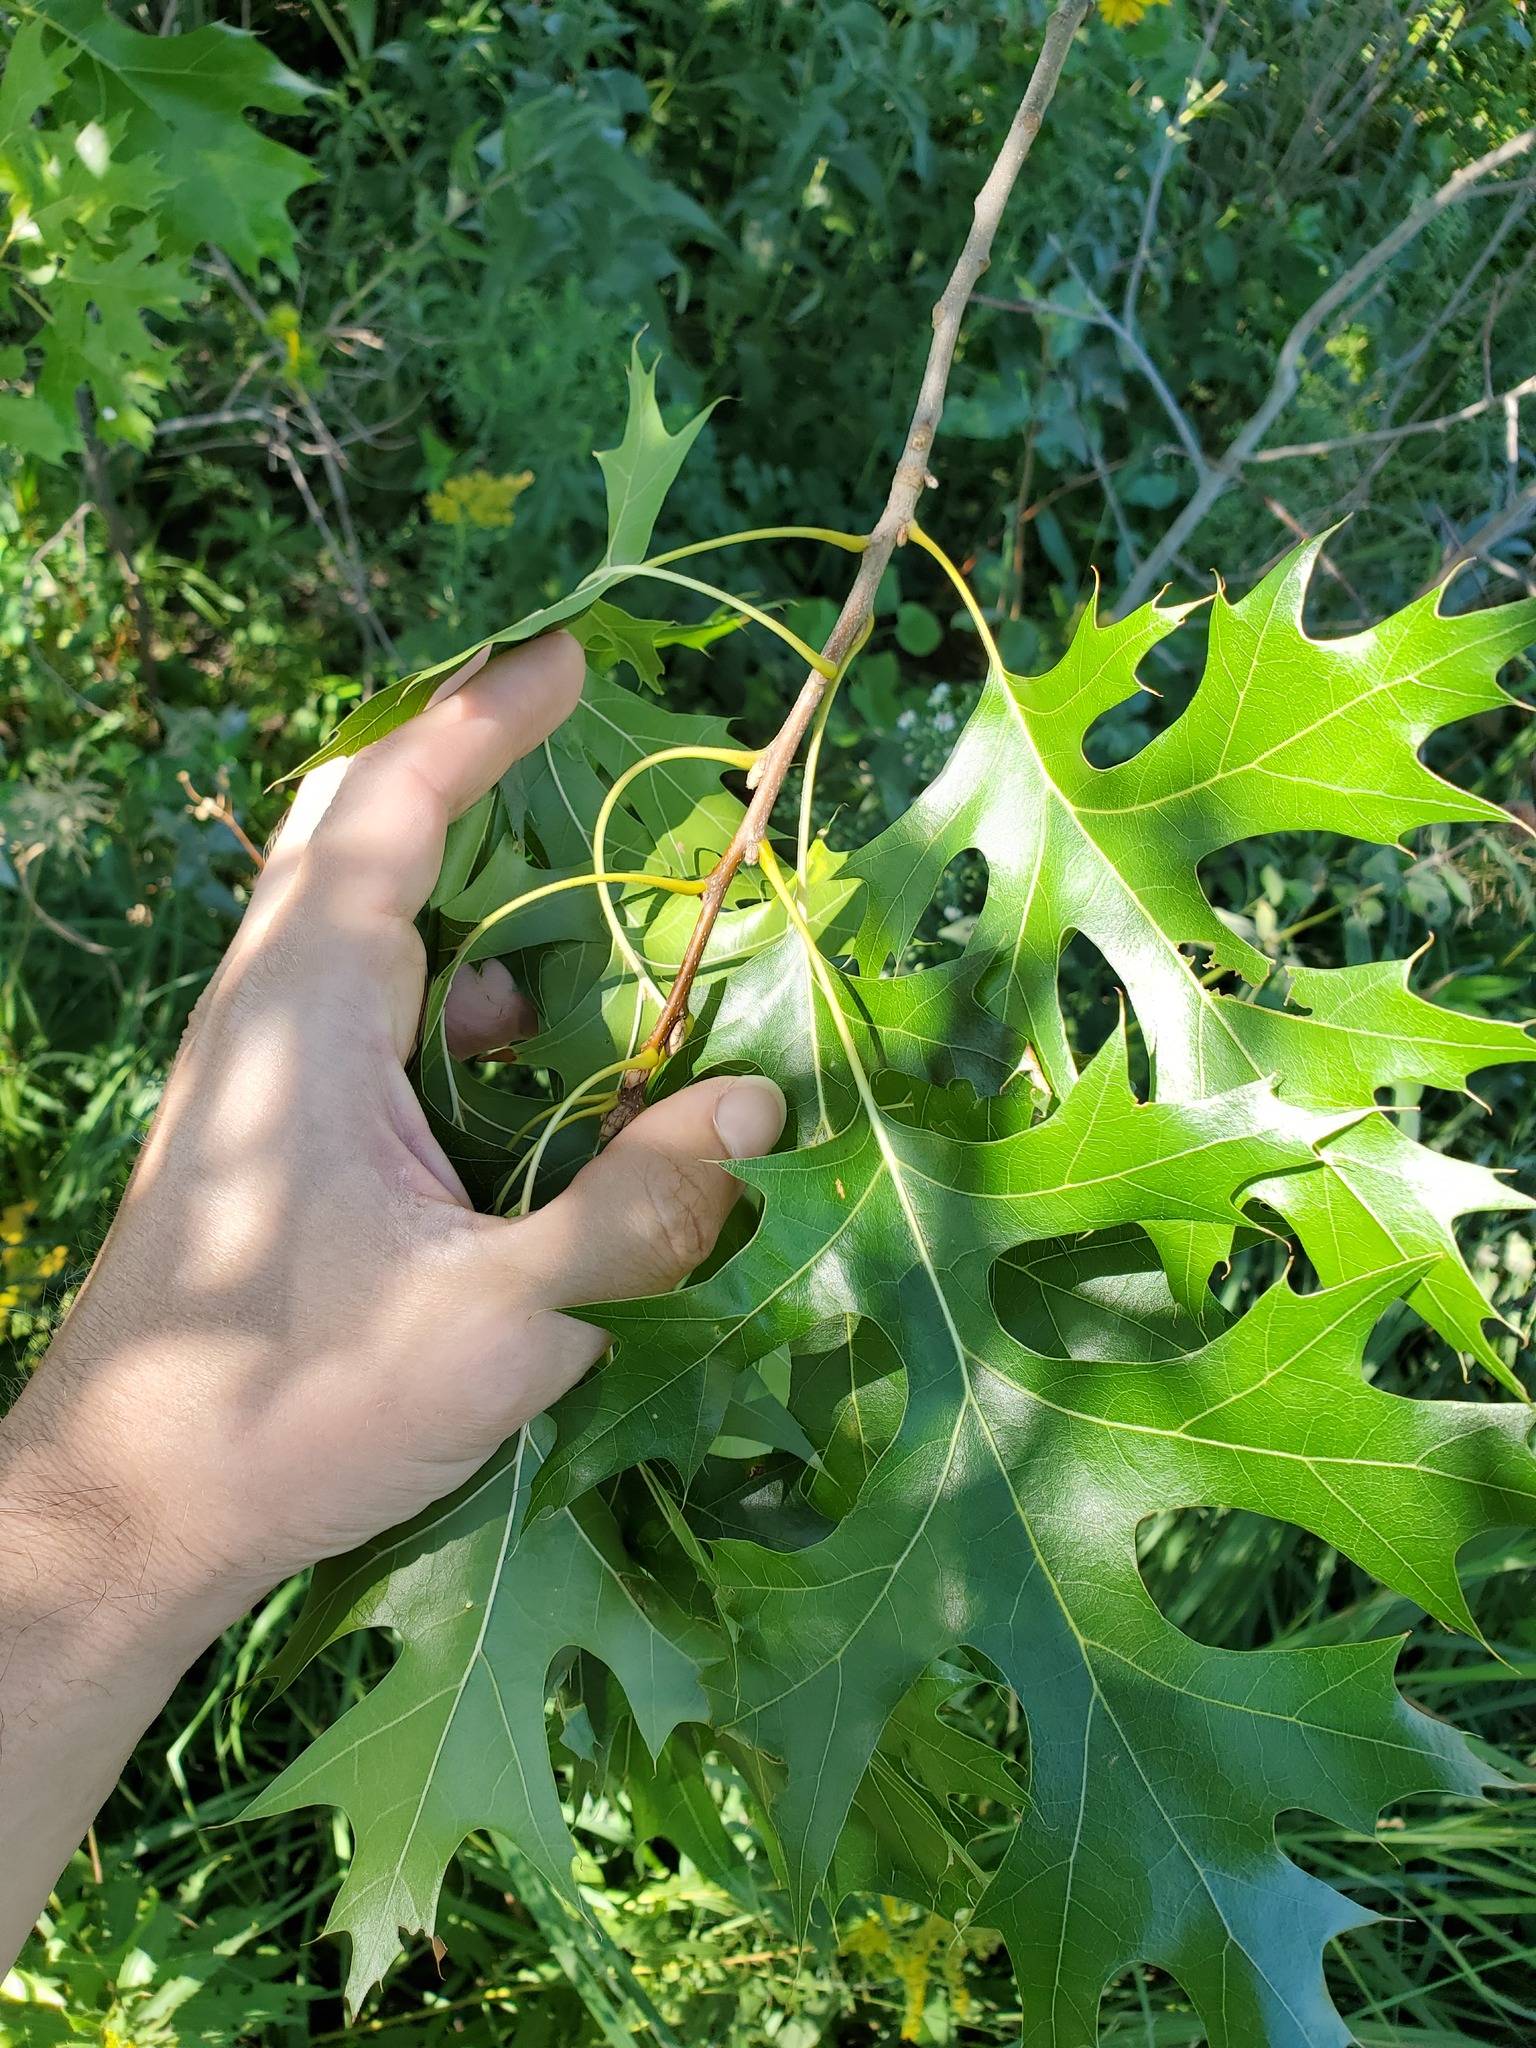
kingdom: Plantae
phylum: Tracheophyta
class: Magnoliopsida
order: Fagales
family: Fagaceae
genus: Quercus
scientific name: Quercus velutina
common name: Black oak
